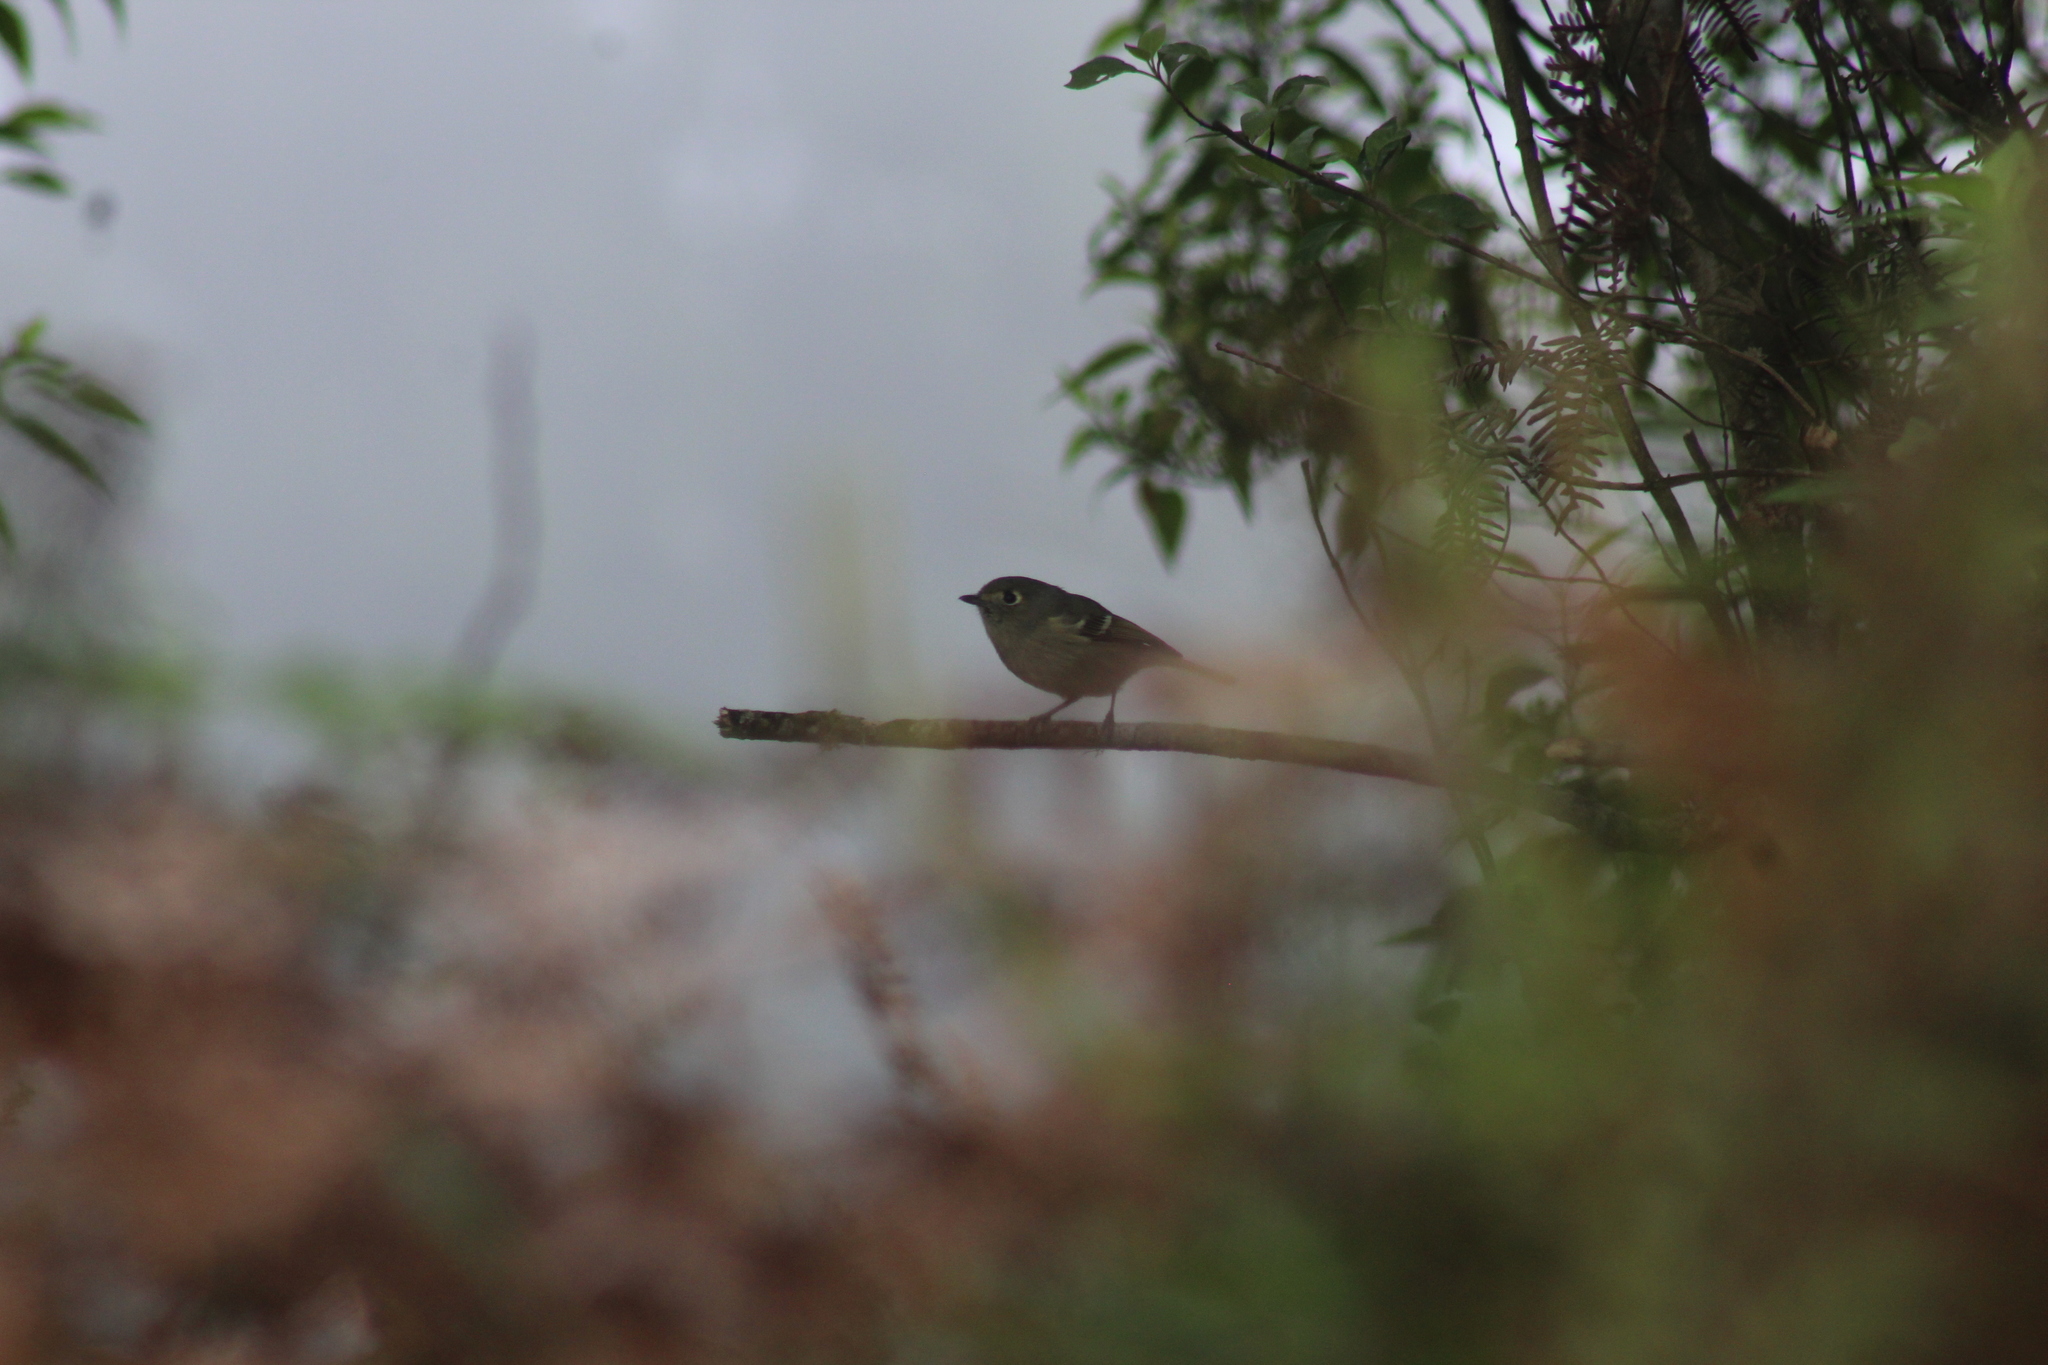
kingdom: Animalia
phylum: Chordata
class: Aves
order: Passeriformes
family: Vireonidae
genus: Vireo
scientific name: Vireo huttoni
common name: Hutton's vireo
